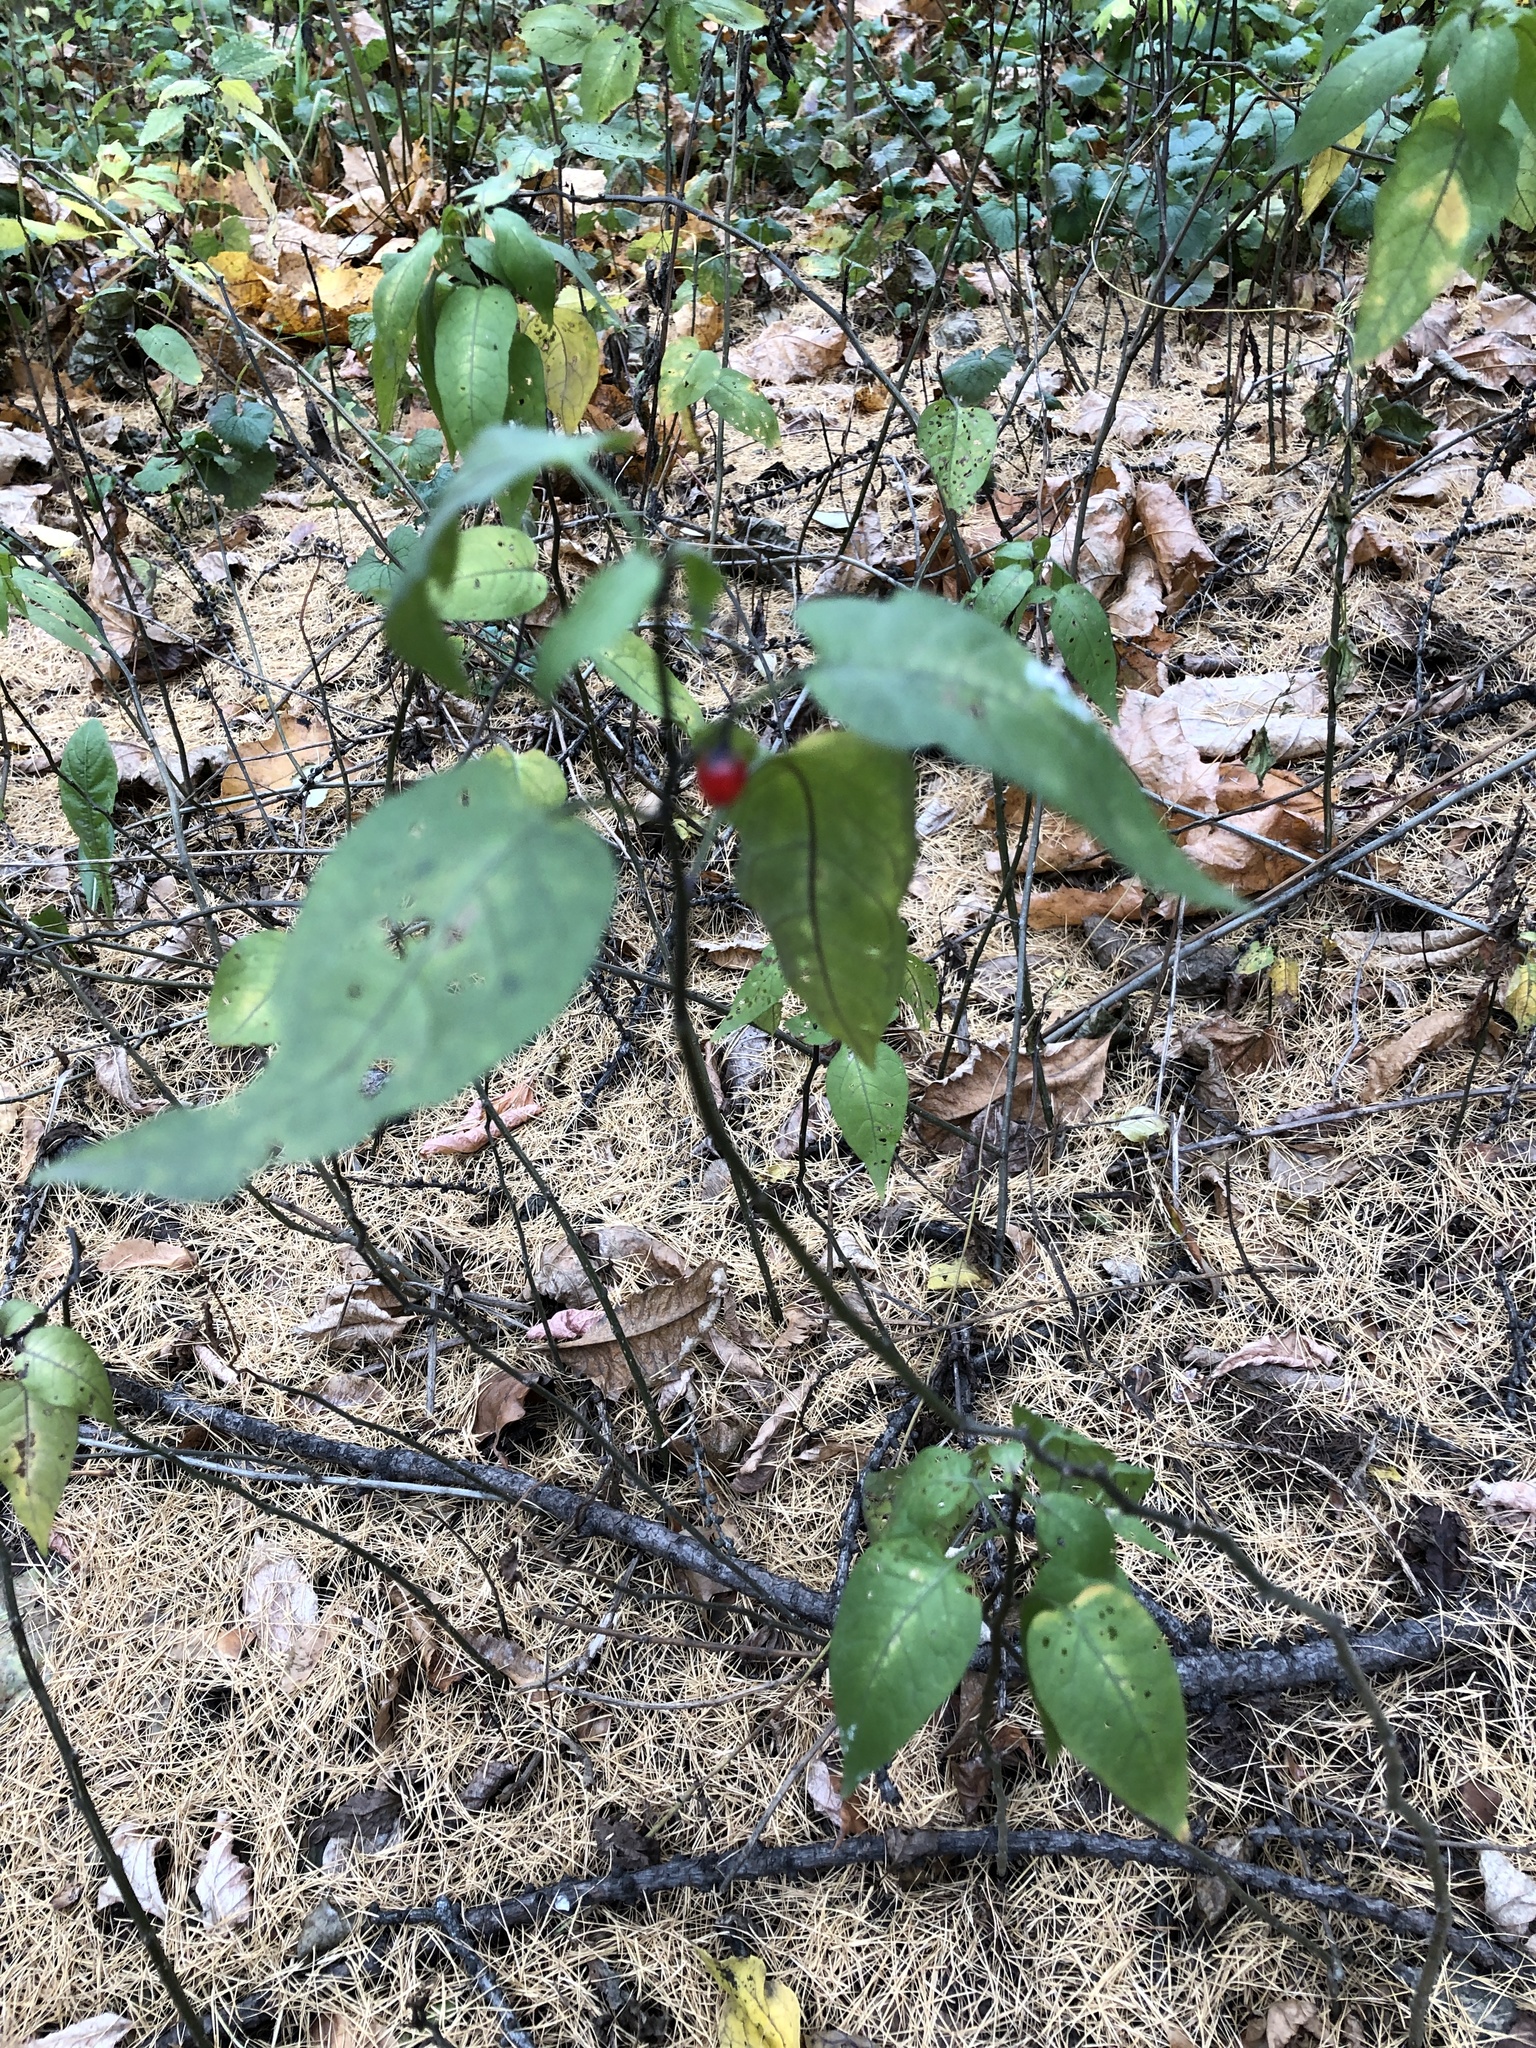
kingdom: Plantae
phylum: Tracheophyta
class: Magnoliopsida
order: Solanales
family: Solanaceae
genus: Solanum
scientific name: Solanum dulcamara
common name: Climbing nightshade
